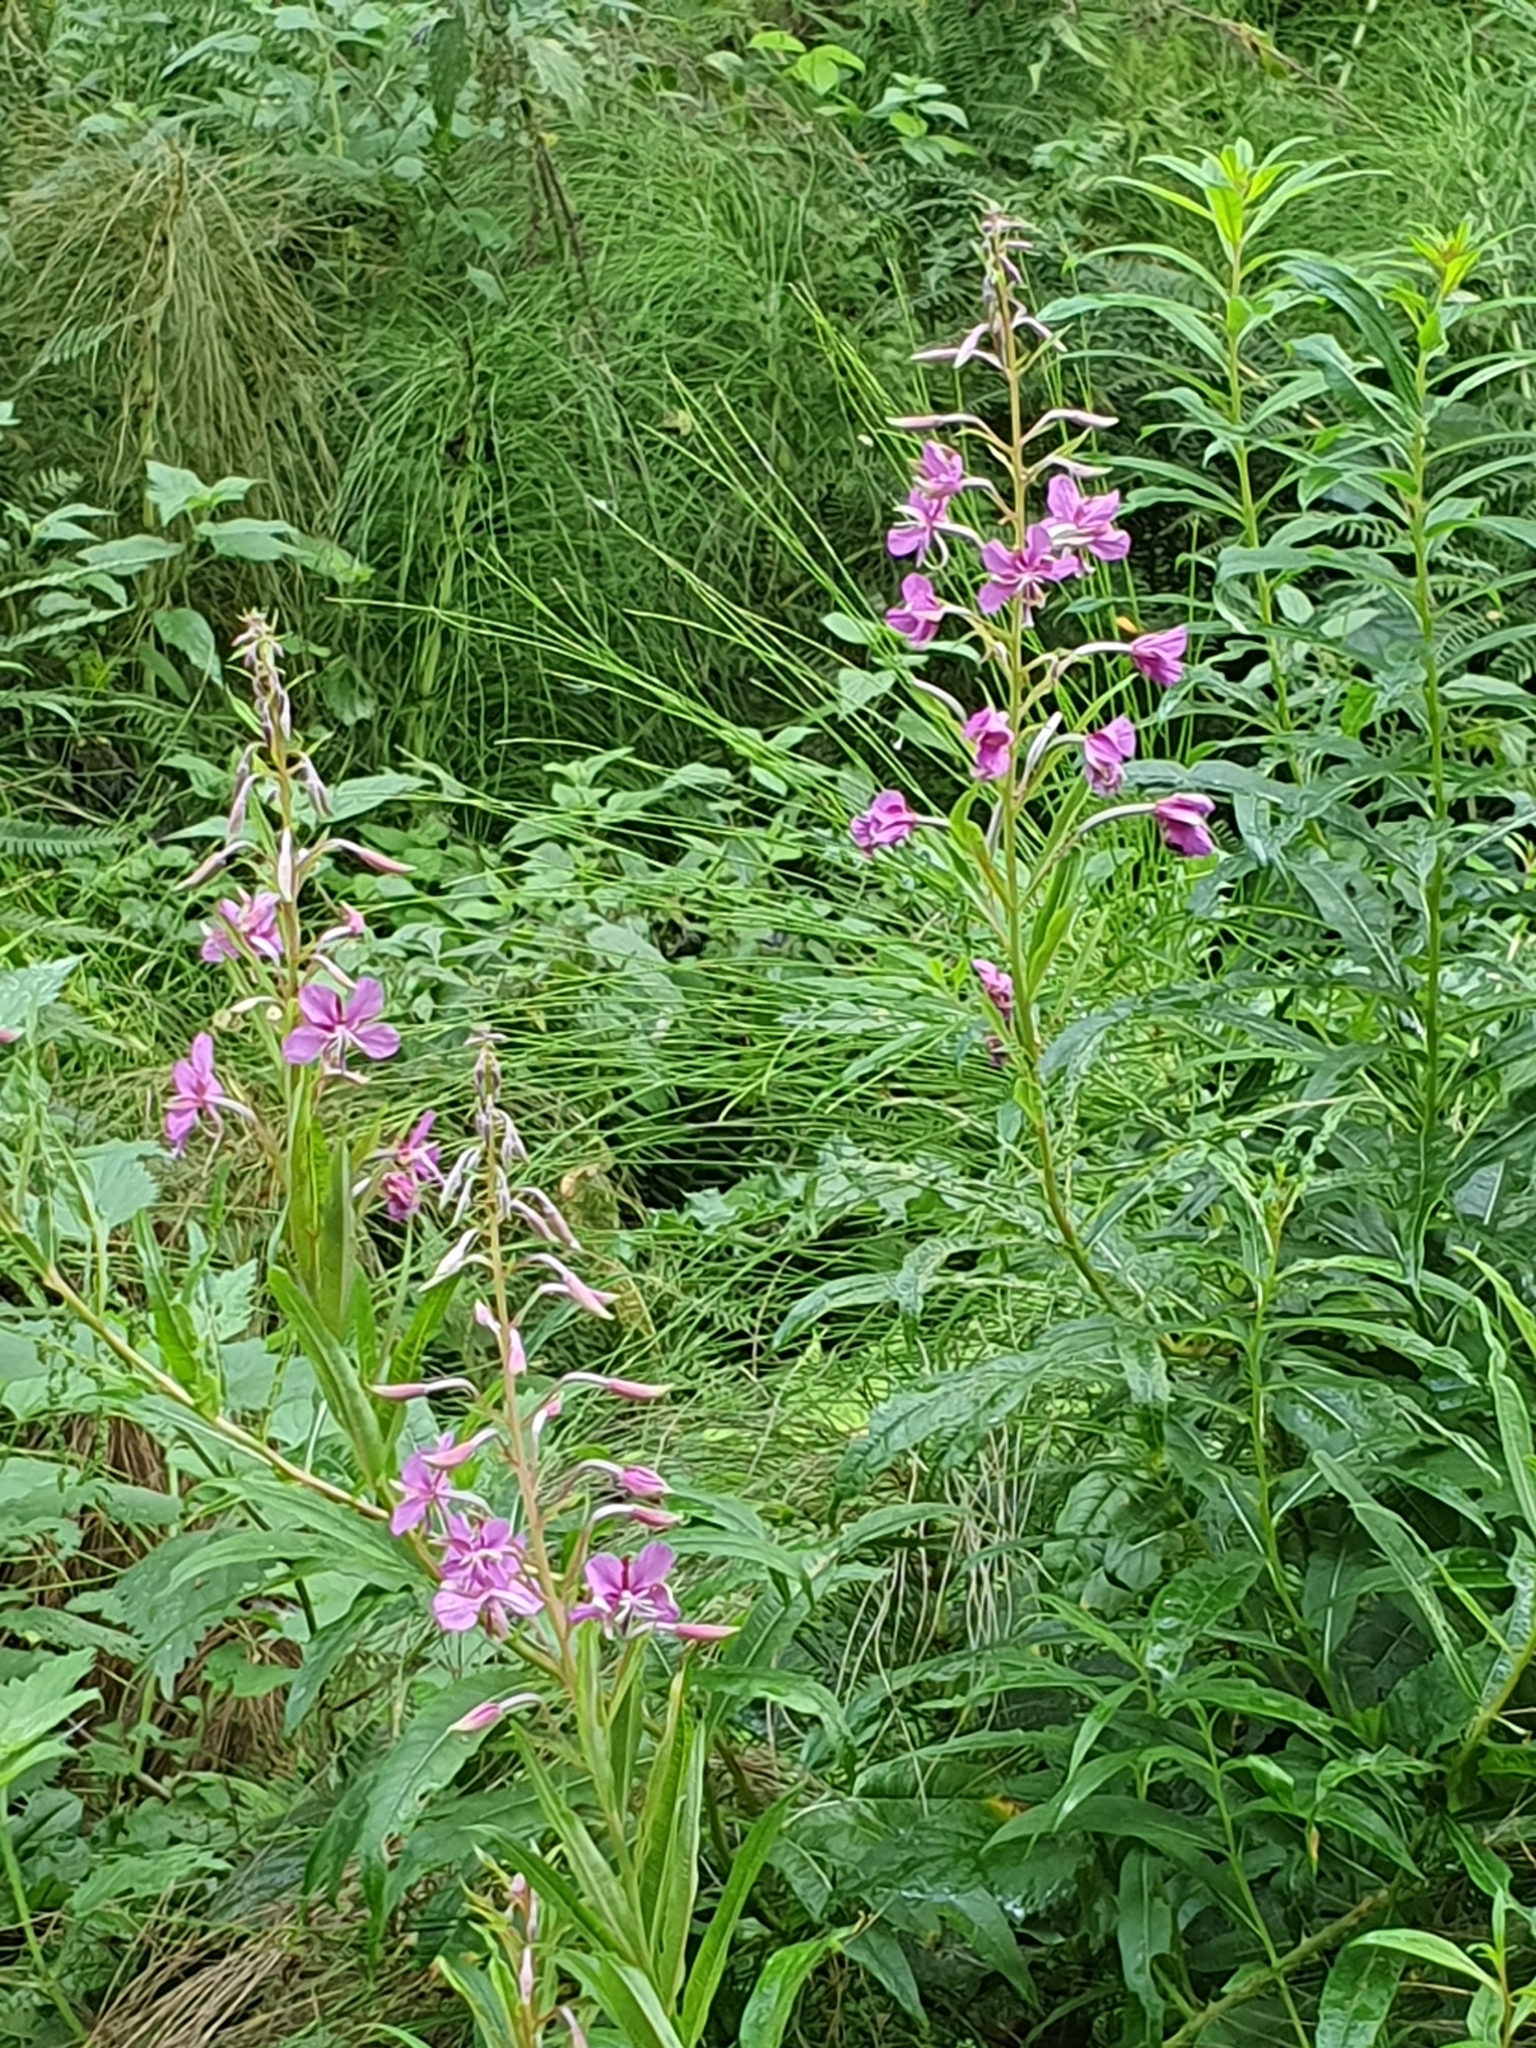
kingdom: Plantae
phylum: Tracheophyta
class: Magnoliopsida
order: Myrtales
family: Onagraceae
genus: Chamaenerion
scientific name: Chamaenerion angustifolium
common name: Fireweed
